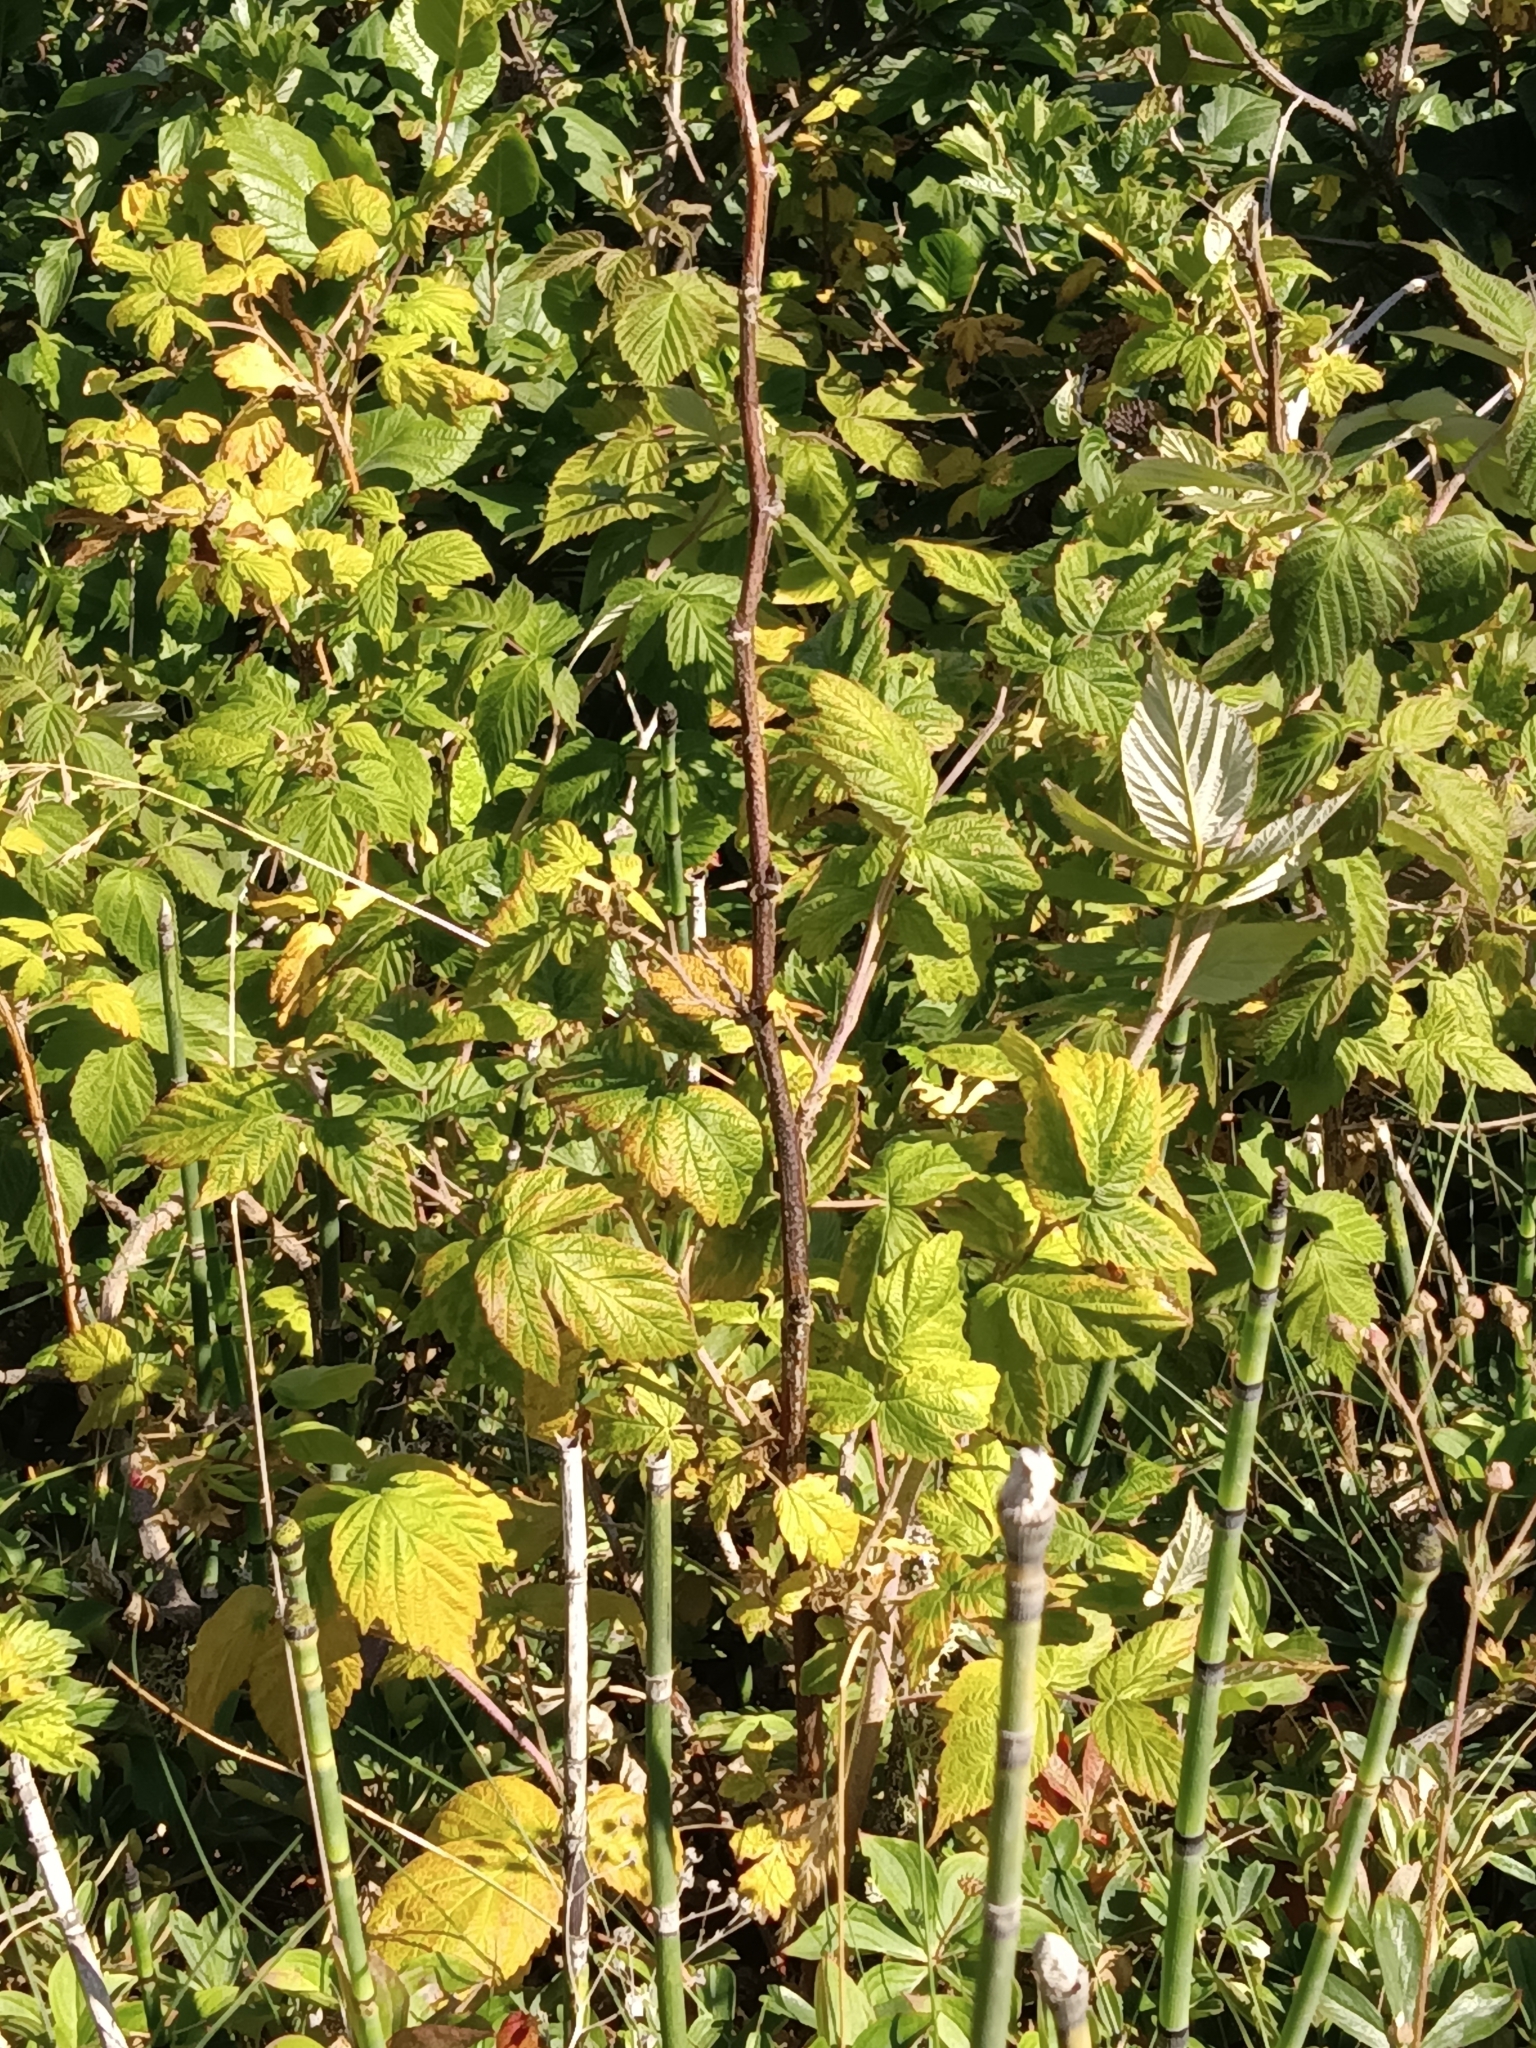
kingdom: Plantae
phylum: Tracheophyta
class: Magnoliopsida
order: Rosales
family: Rosaceae
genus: Rubus
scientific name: Rubus idaeus
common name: Raspberry
